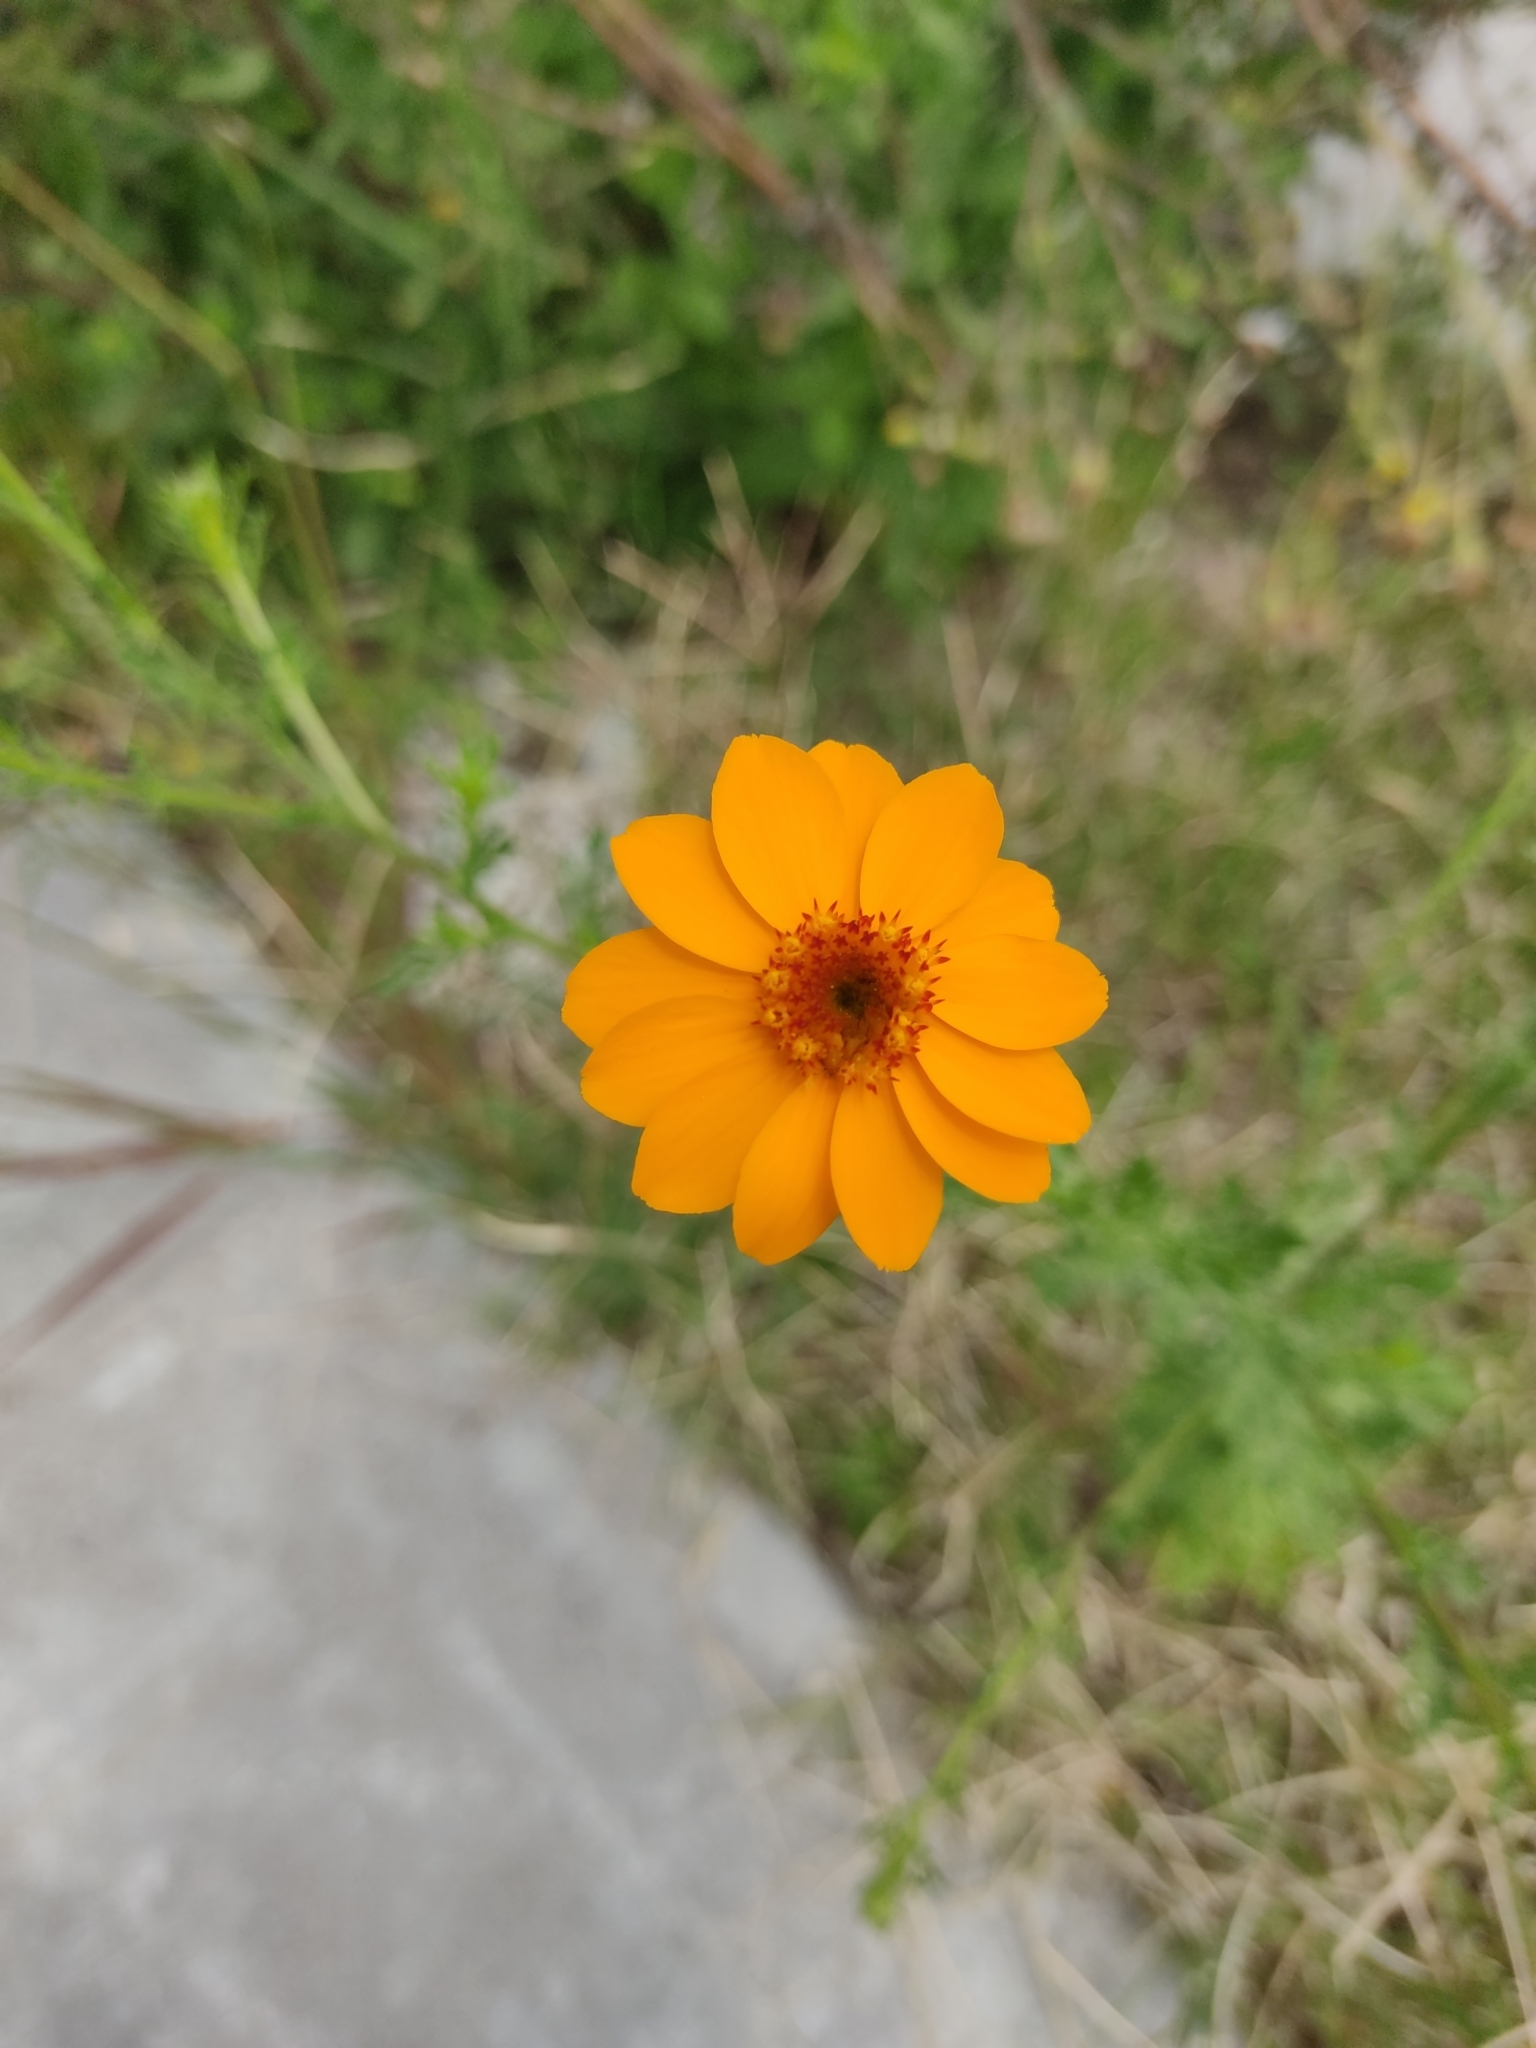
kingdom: Plantae
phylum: Tracheophyta
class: Magnoliopsida
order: Asterales
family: Asteraceae
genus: Adenophyllum
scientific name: Adenophyllum cancellatum
